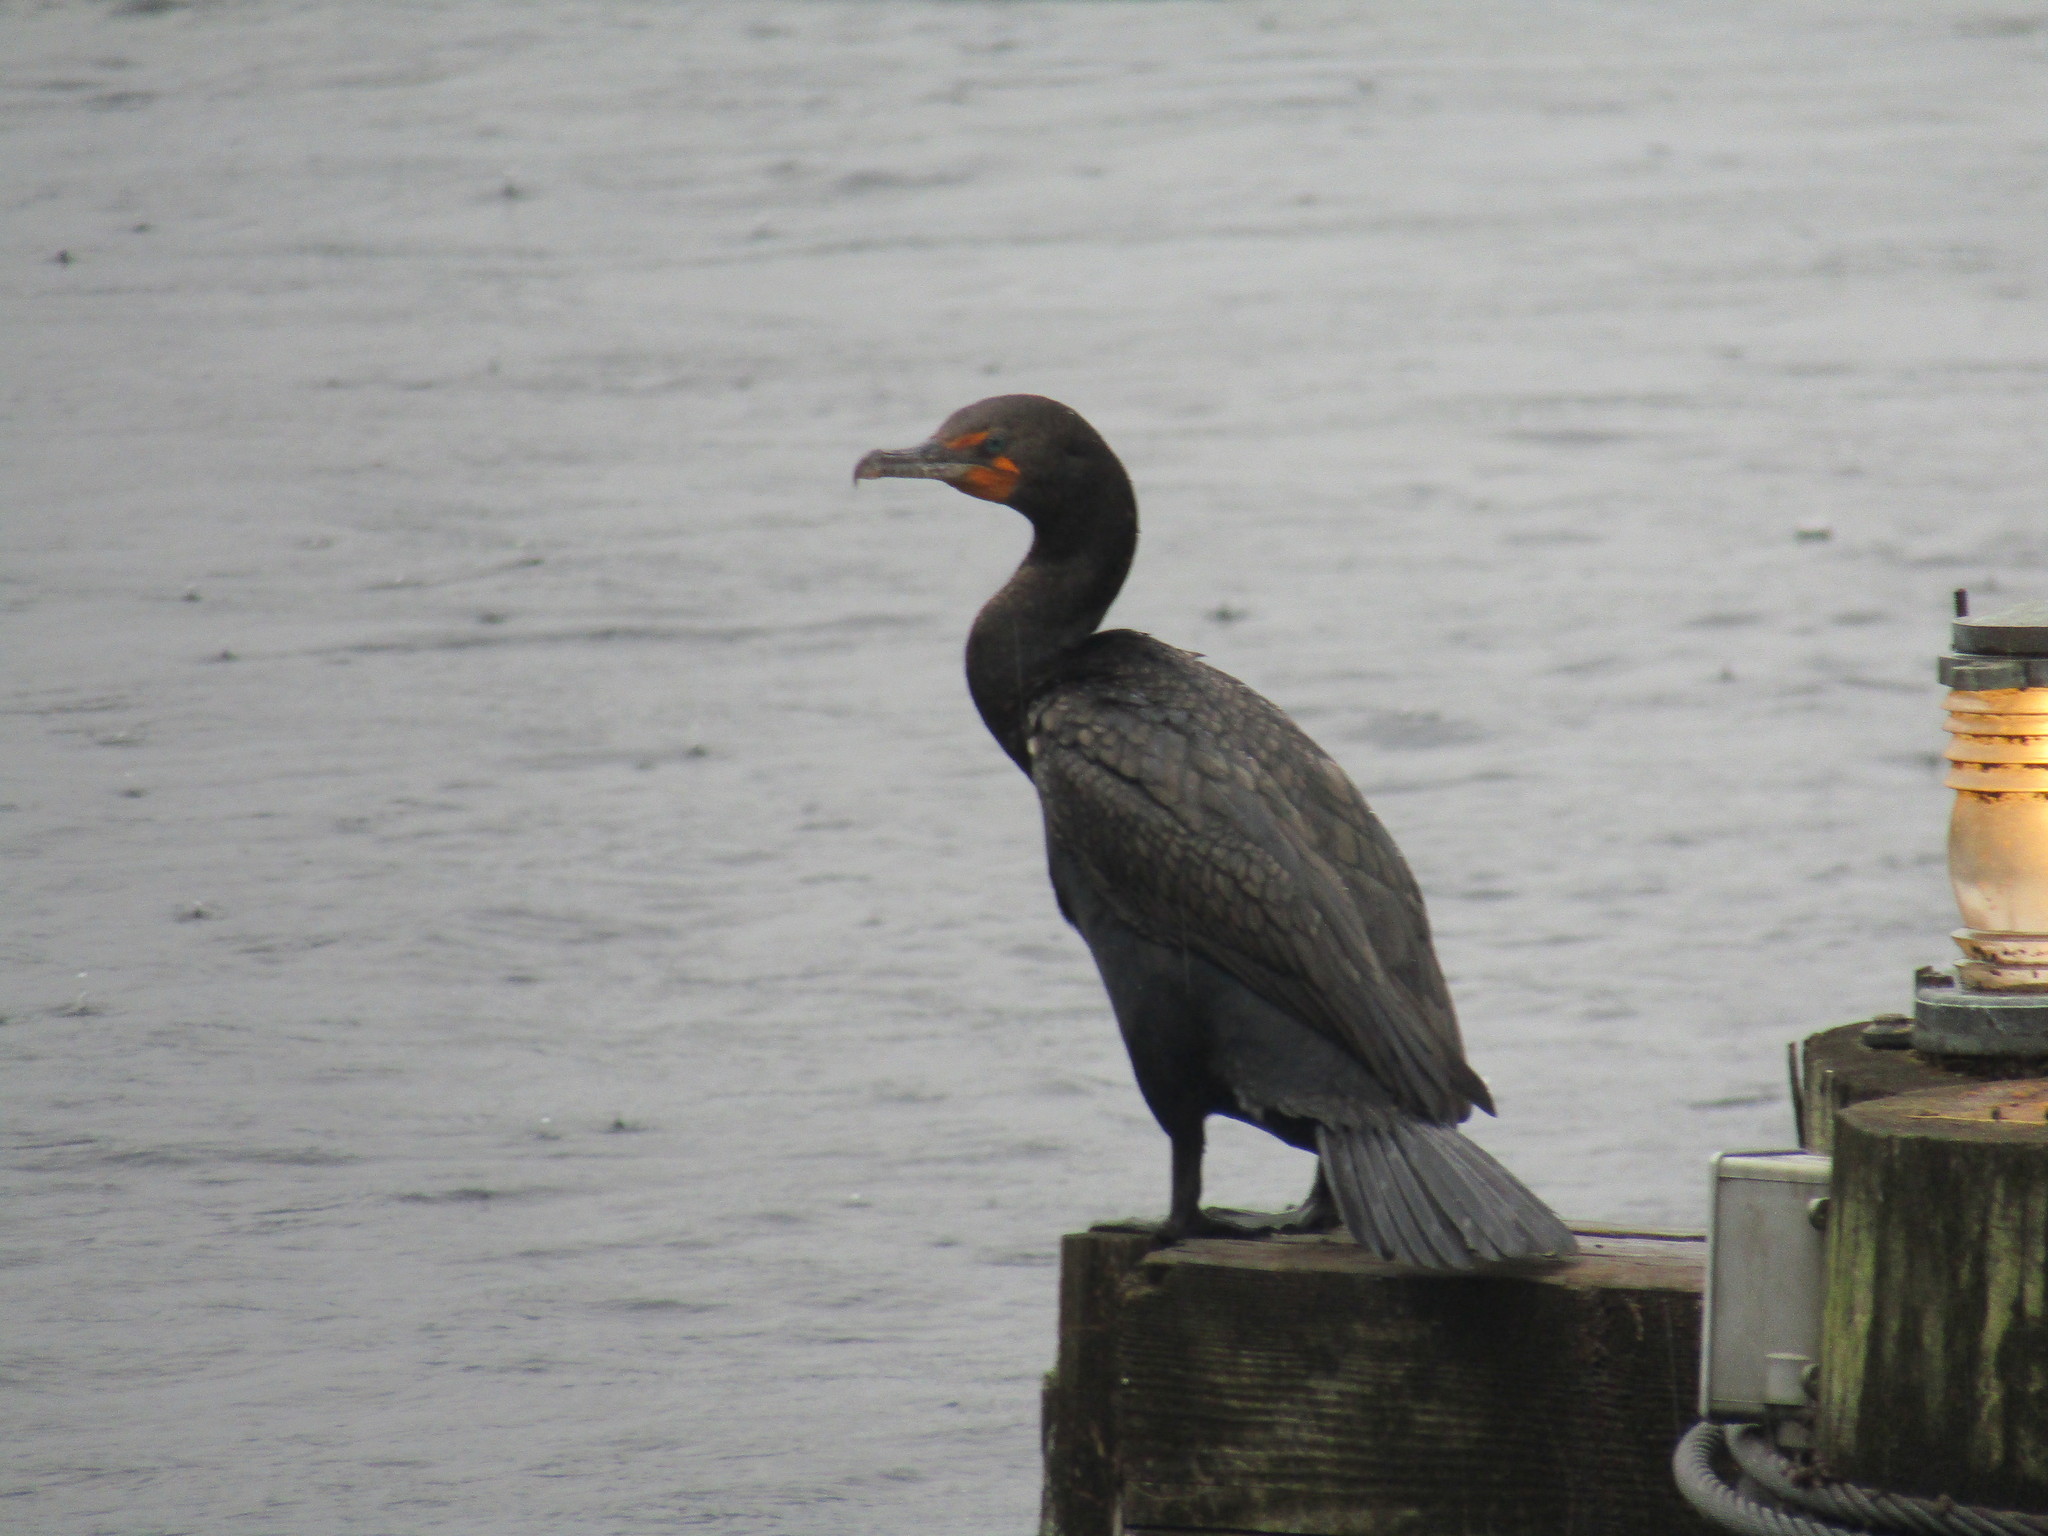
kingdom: Animalia
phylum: Chordata
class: Aves
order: Suliformes
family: Phalacrocoracidae
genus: Phalacrocorax
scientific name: Phalacrocorax auritus
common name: Double-crested cormorant
